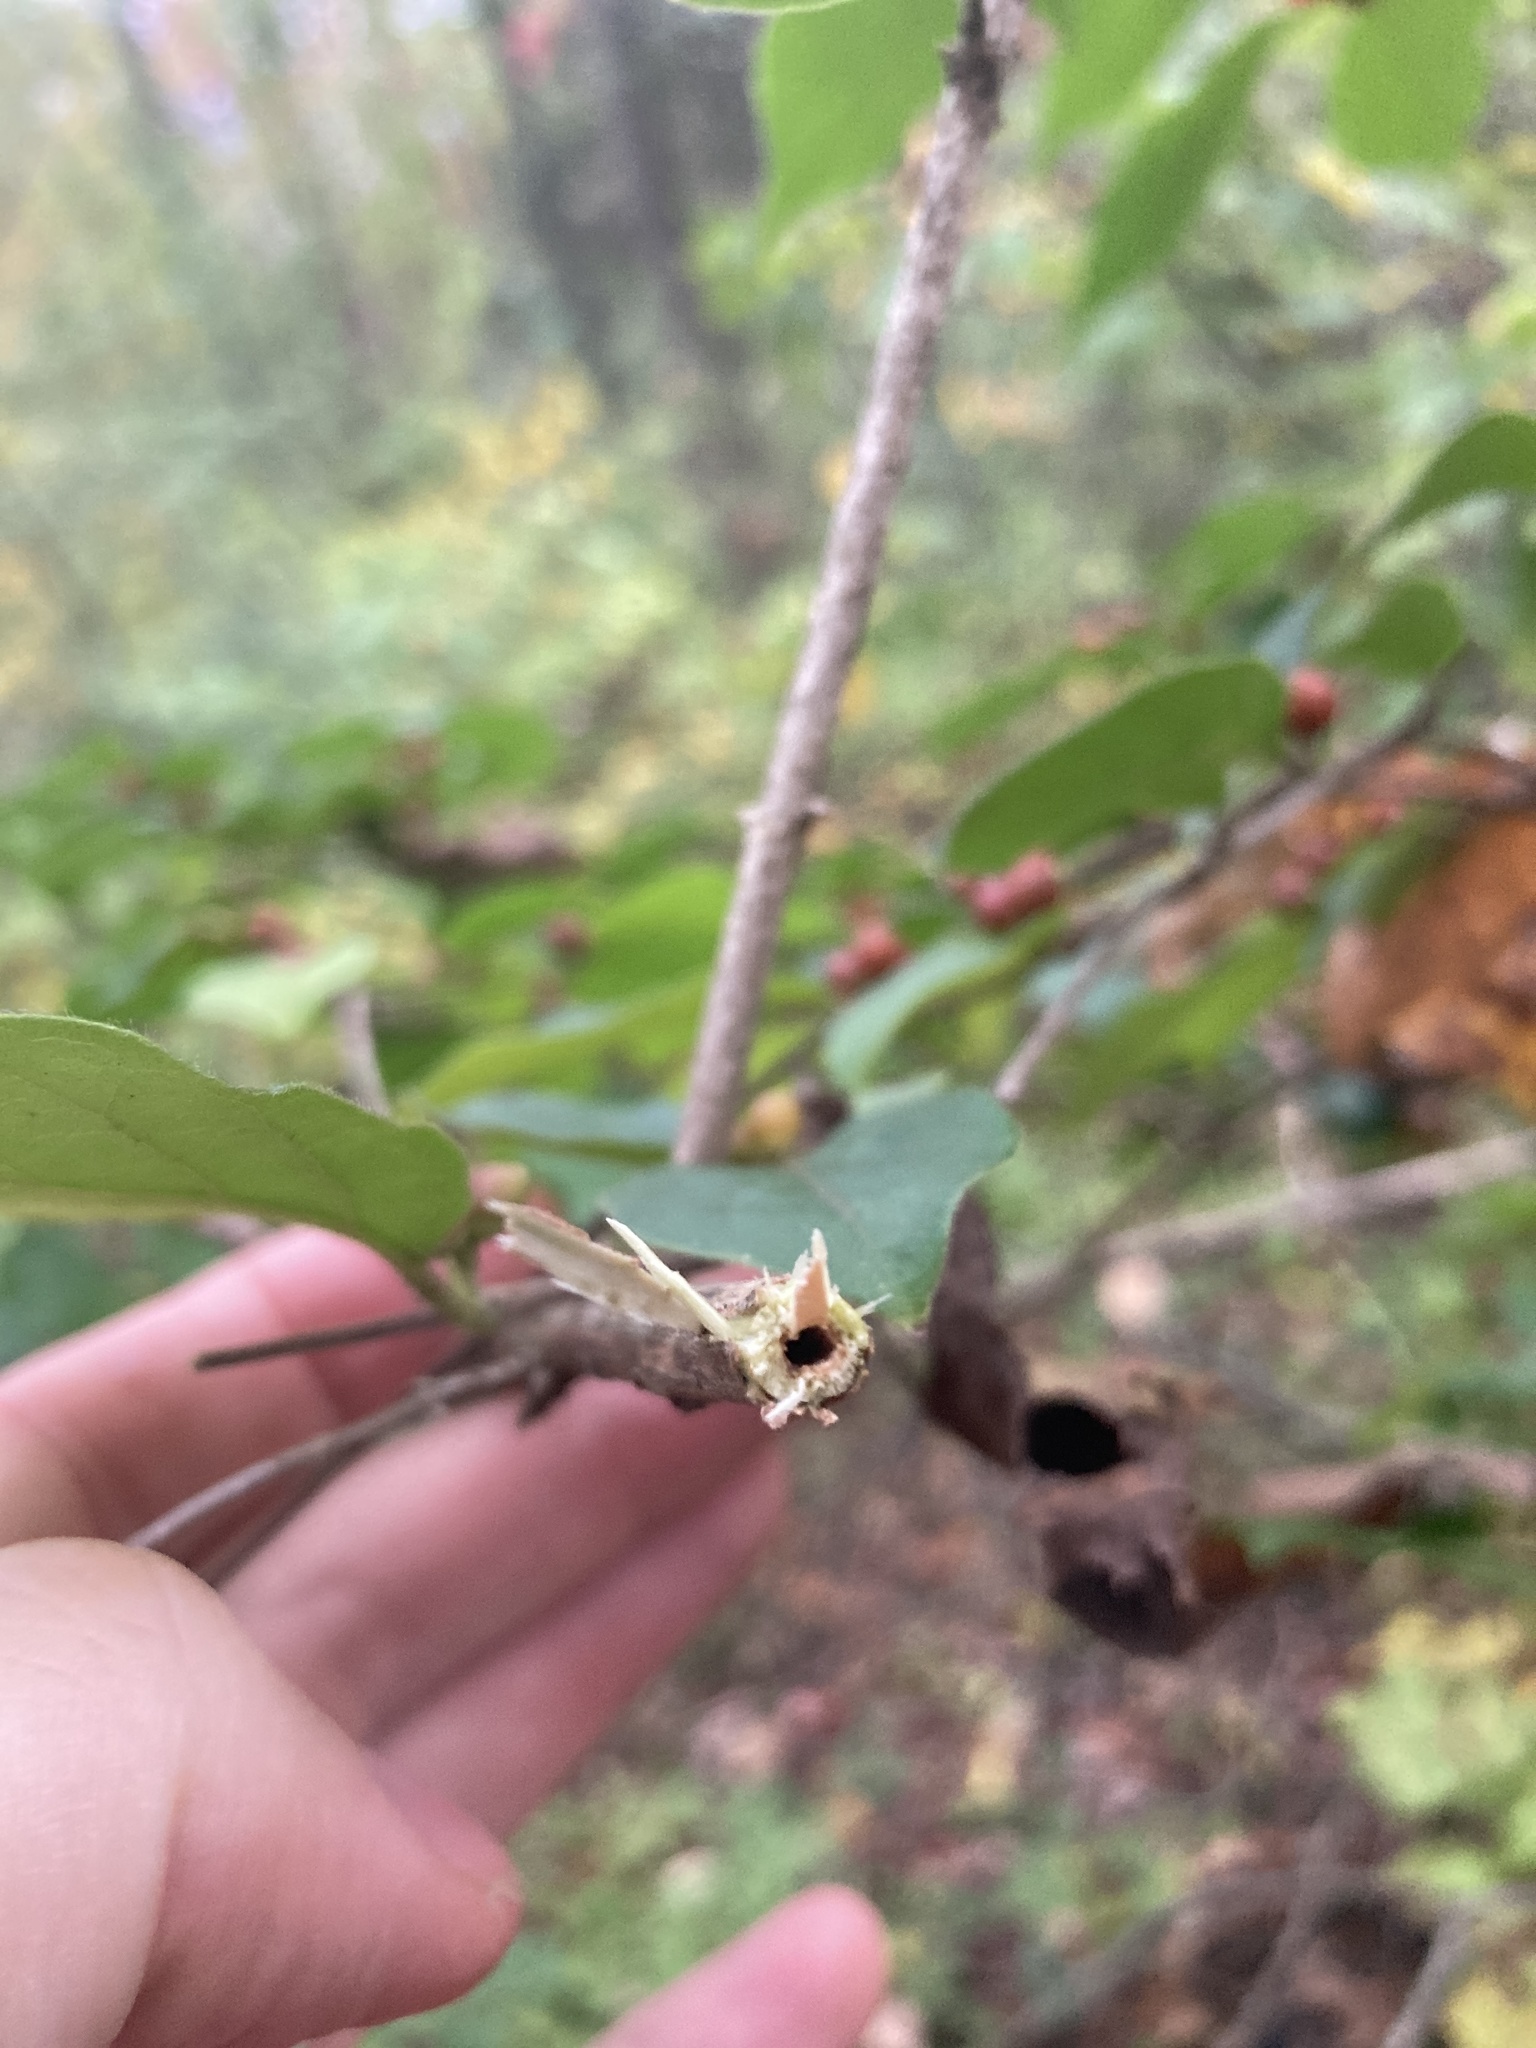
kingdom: Plantae
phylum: Tracheophyta
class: Magnoliopsida
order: Dipsacales
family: Caprifoliaceae
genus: Lonicera
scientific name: Lonicera maackii
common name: Amur honeysuckle
